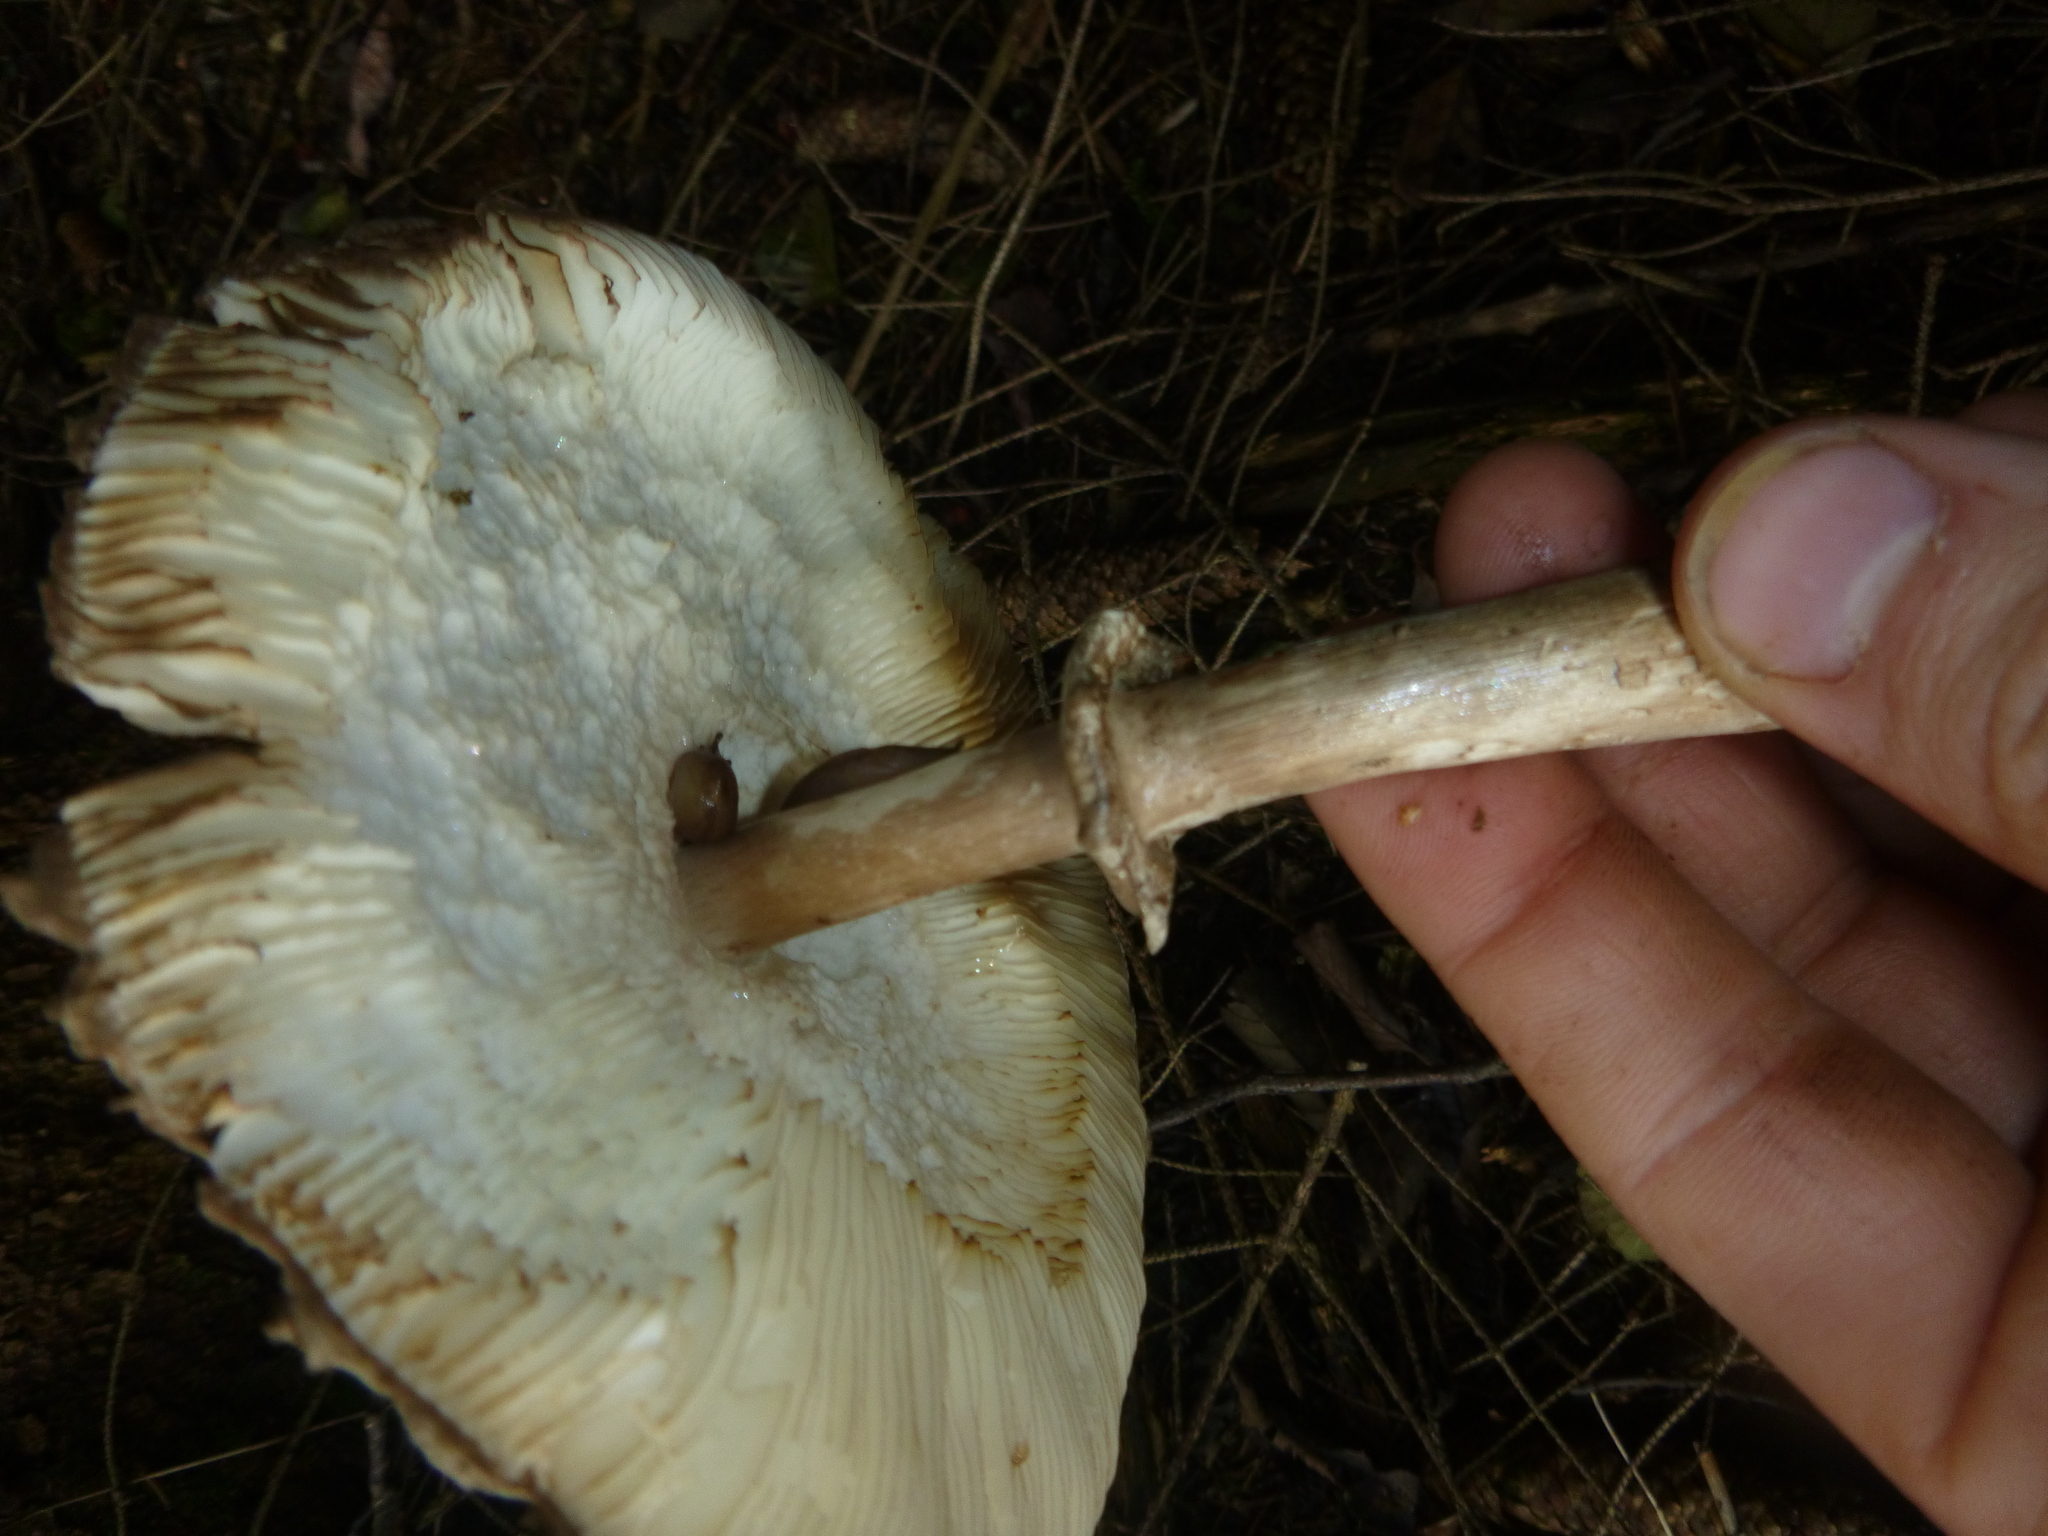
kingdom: Fungi
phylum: Basidiomycota
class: Agaricomycetes
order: Agaricales
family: Agaricaceae
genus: Chlorophyllum
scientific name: Chlorophyllum olivieri
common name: Conifer parasol
